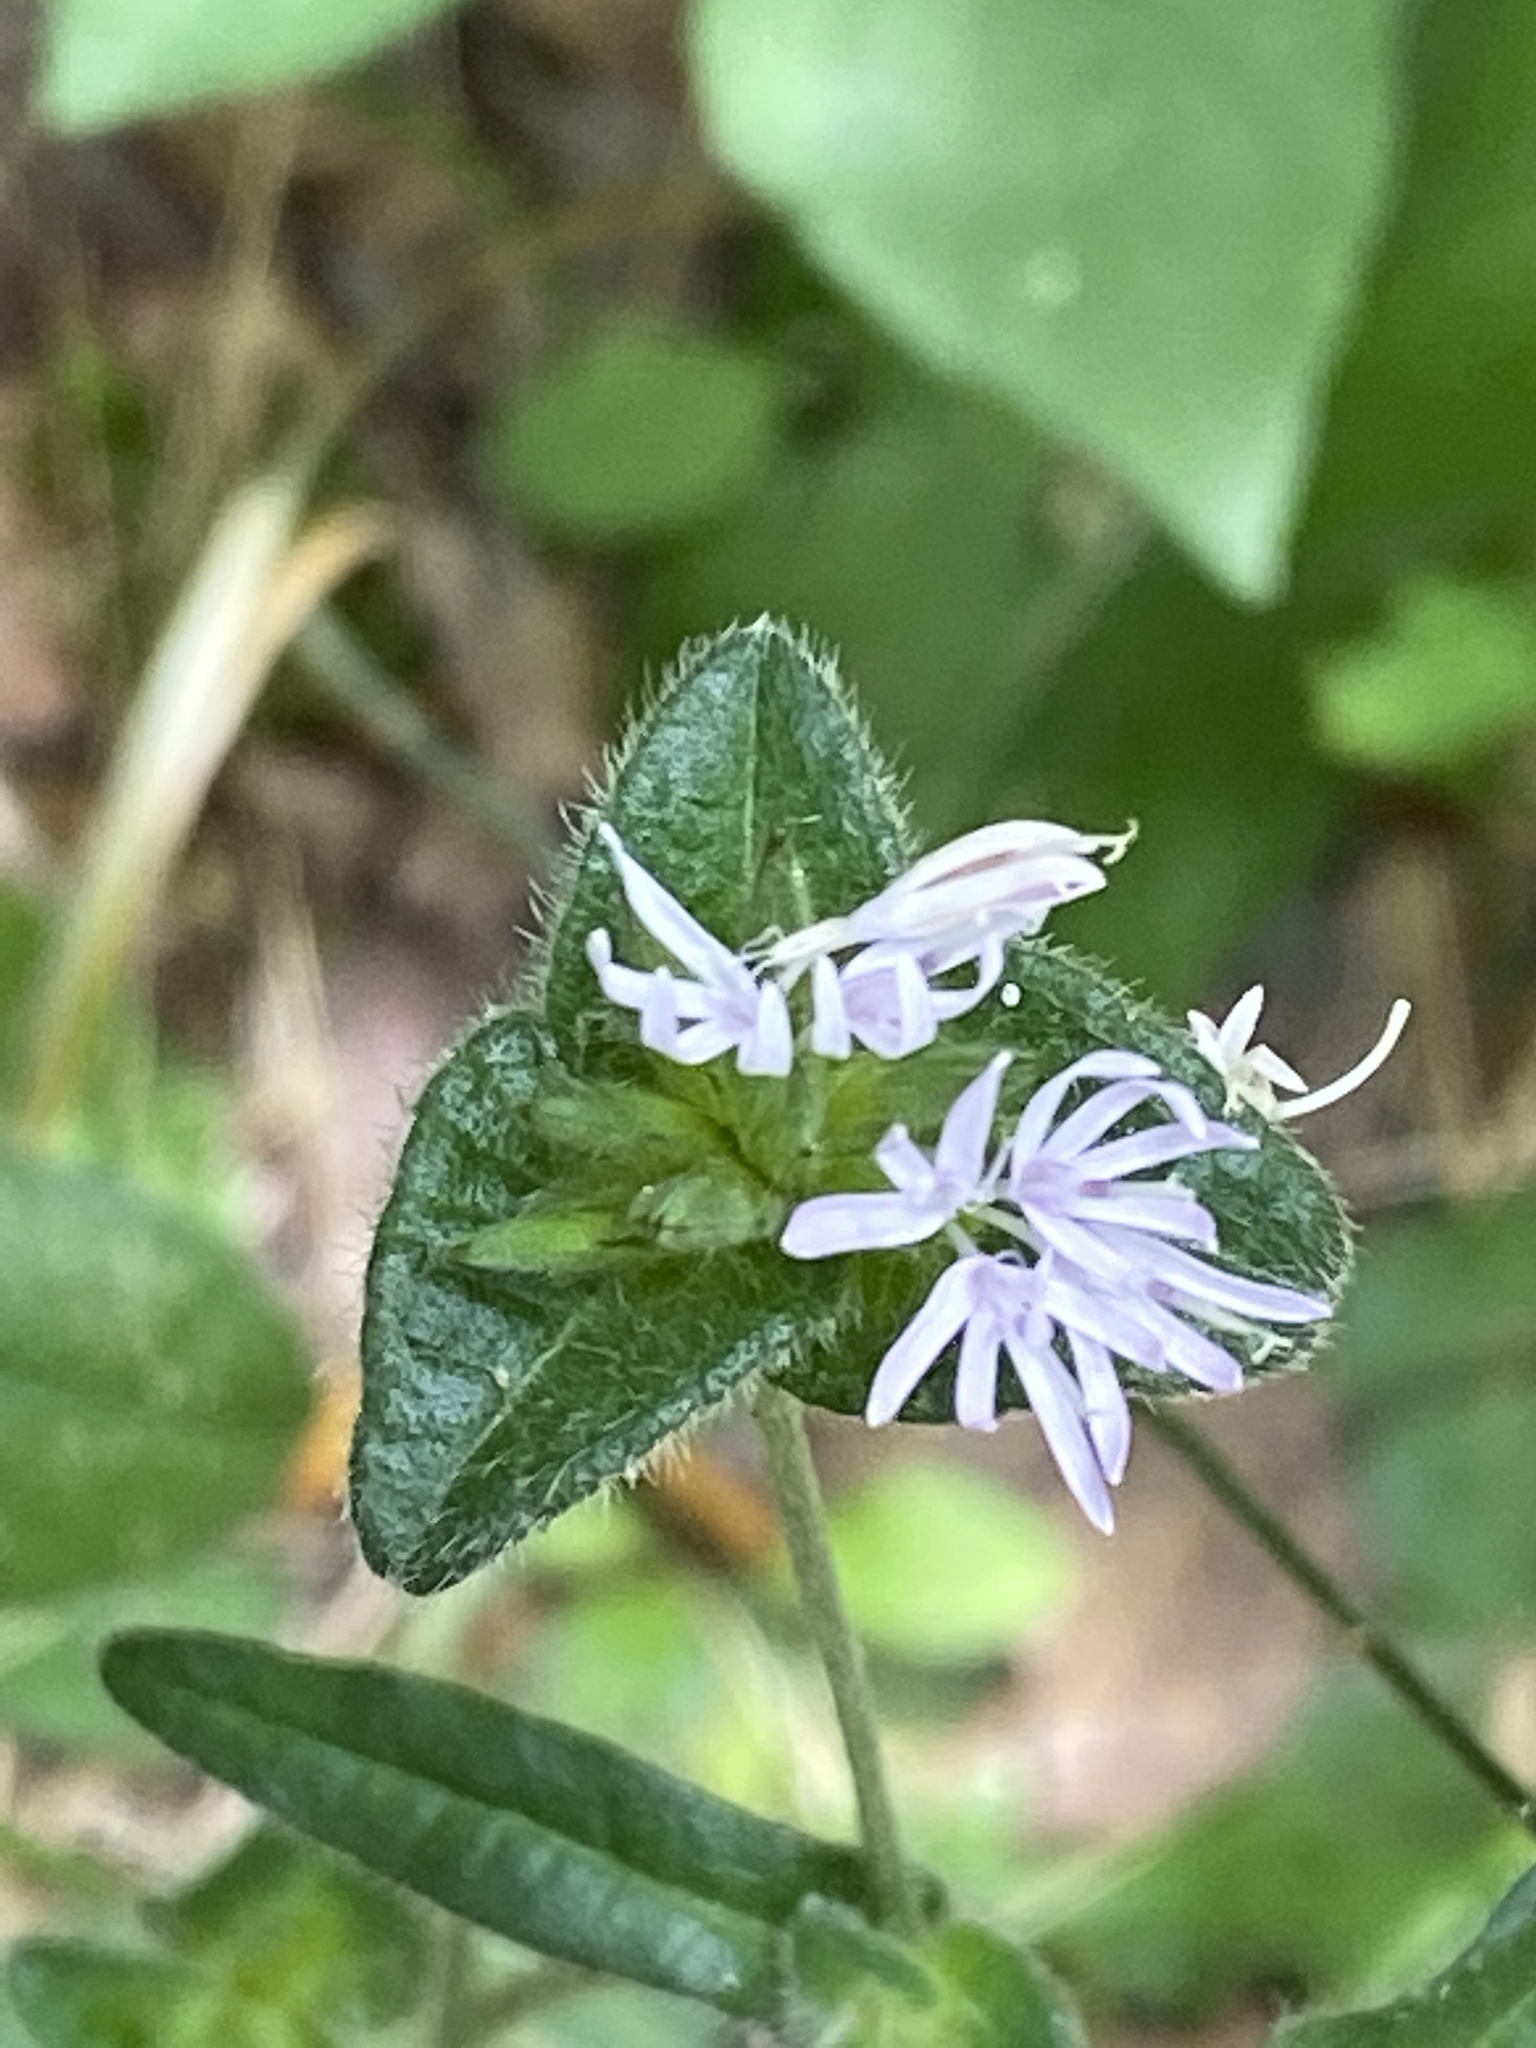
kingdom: Plantae
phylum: Tracheophyta
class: Magnoliopsida
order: Asterales
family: Asteraceae
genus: Elephantopus
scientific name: Elephantopus tomentosus
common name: Tobacco-weed
